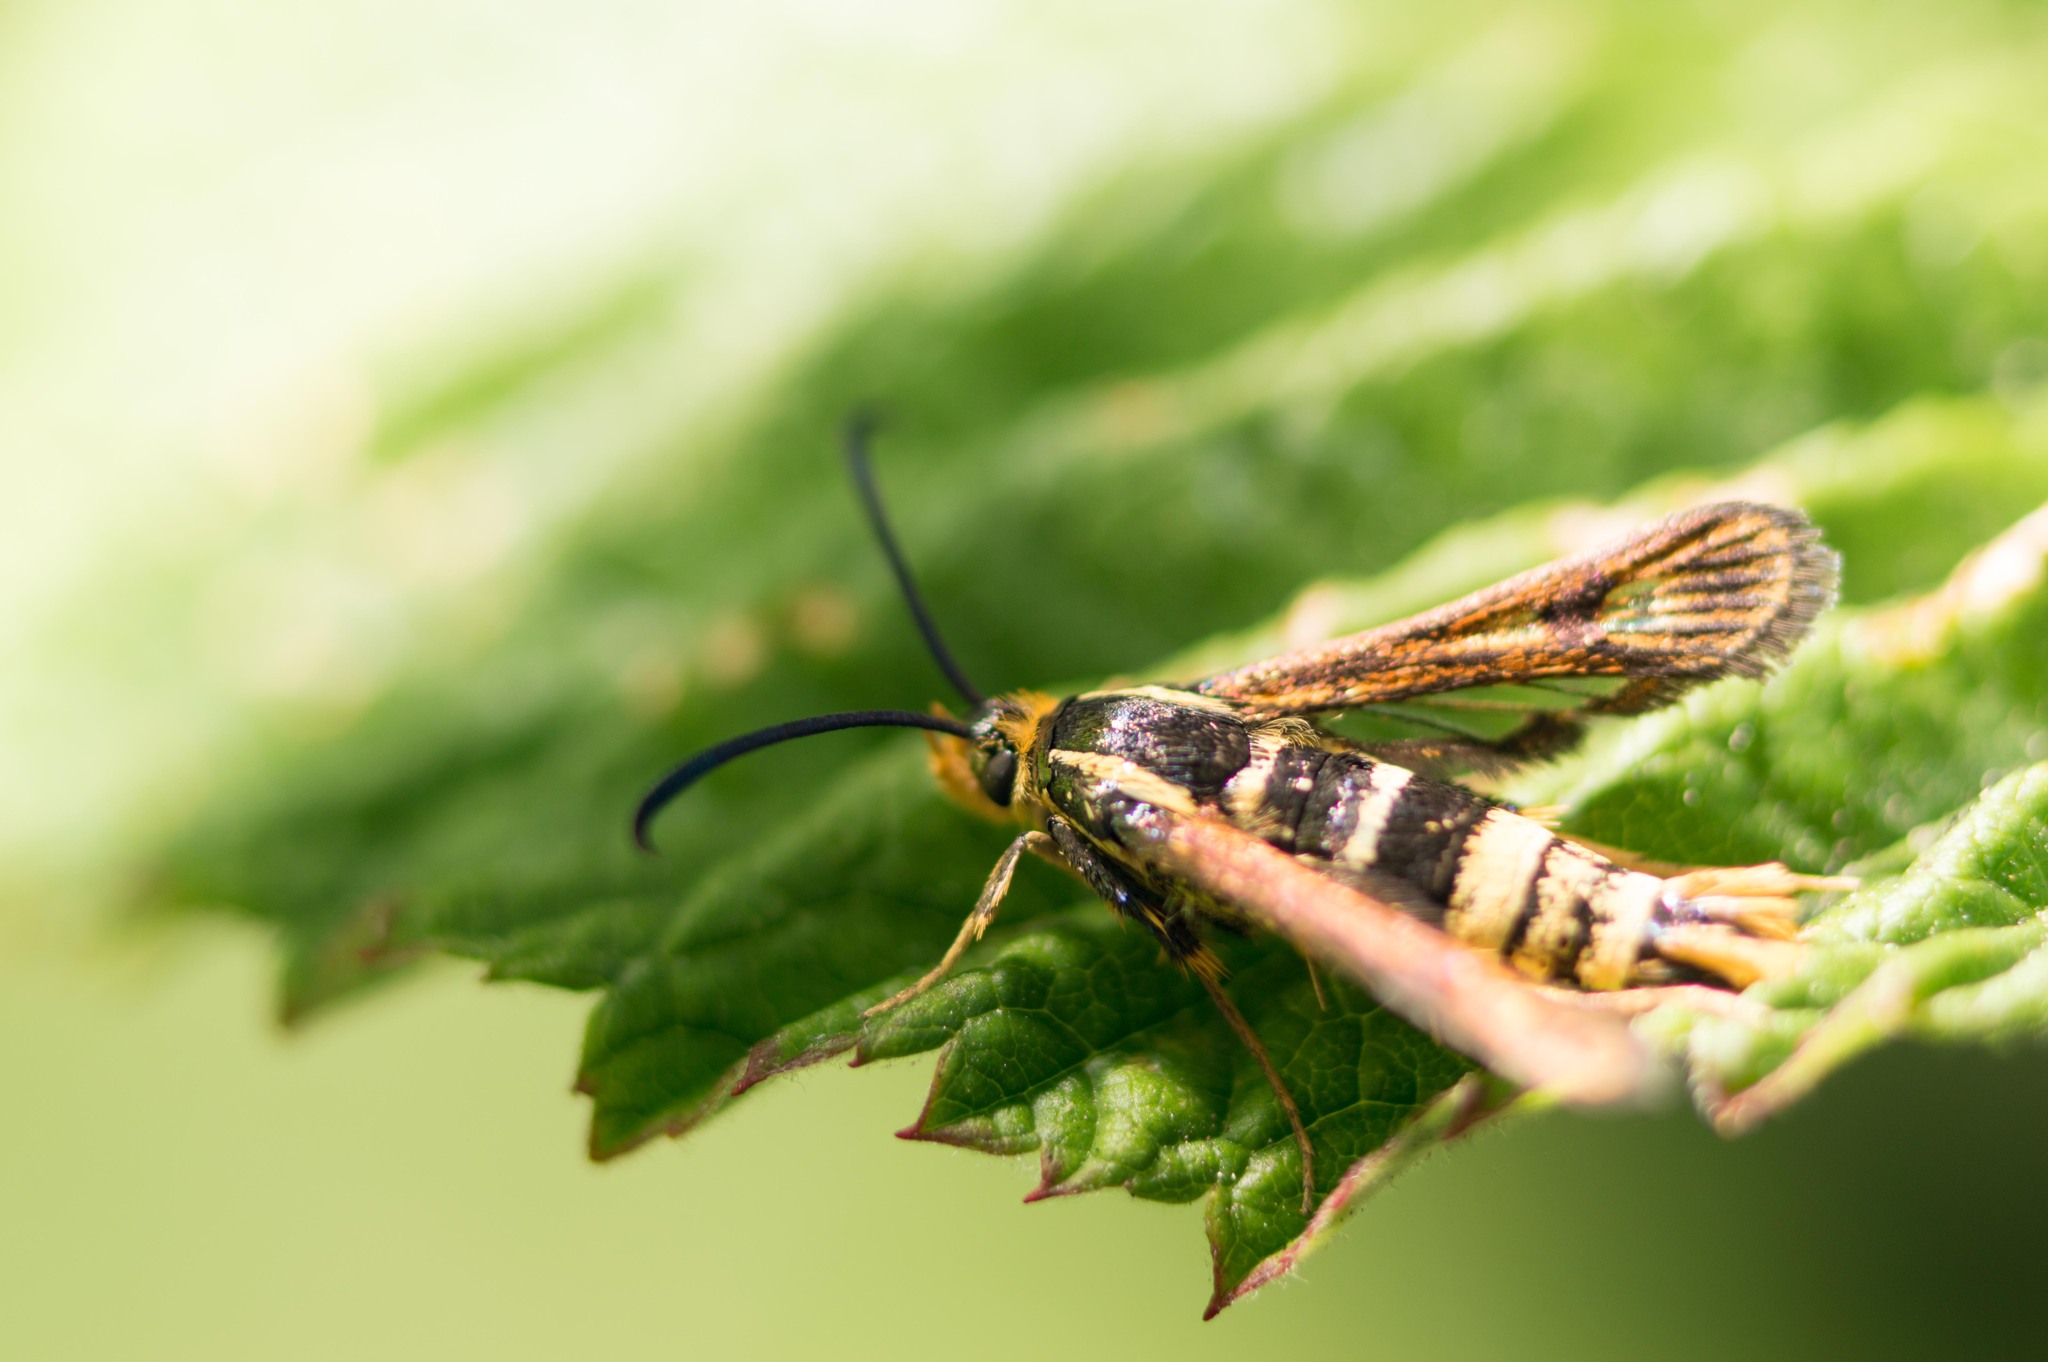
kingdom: Animalia
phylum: Arthropoda
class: Insecta
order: Lepidoptera
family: Sesiidae
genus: Synanthedon
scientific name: Synanthedon bibionipennis
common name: Strawberry crown moth
